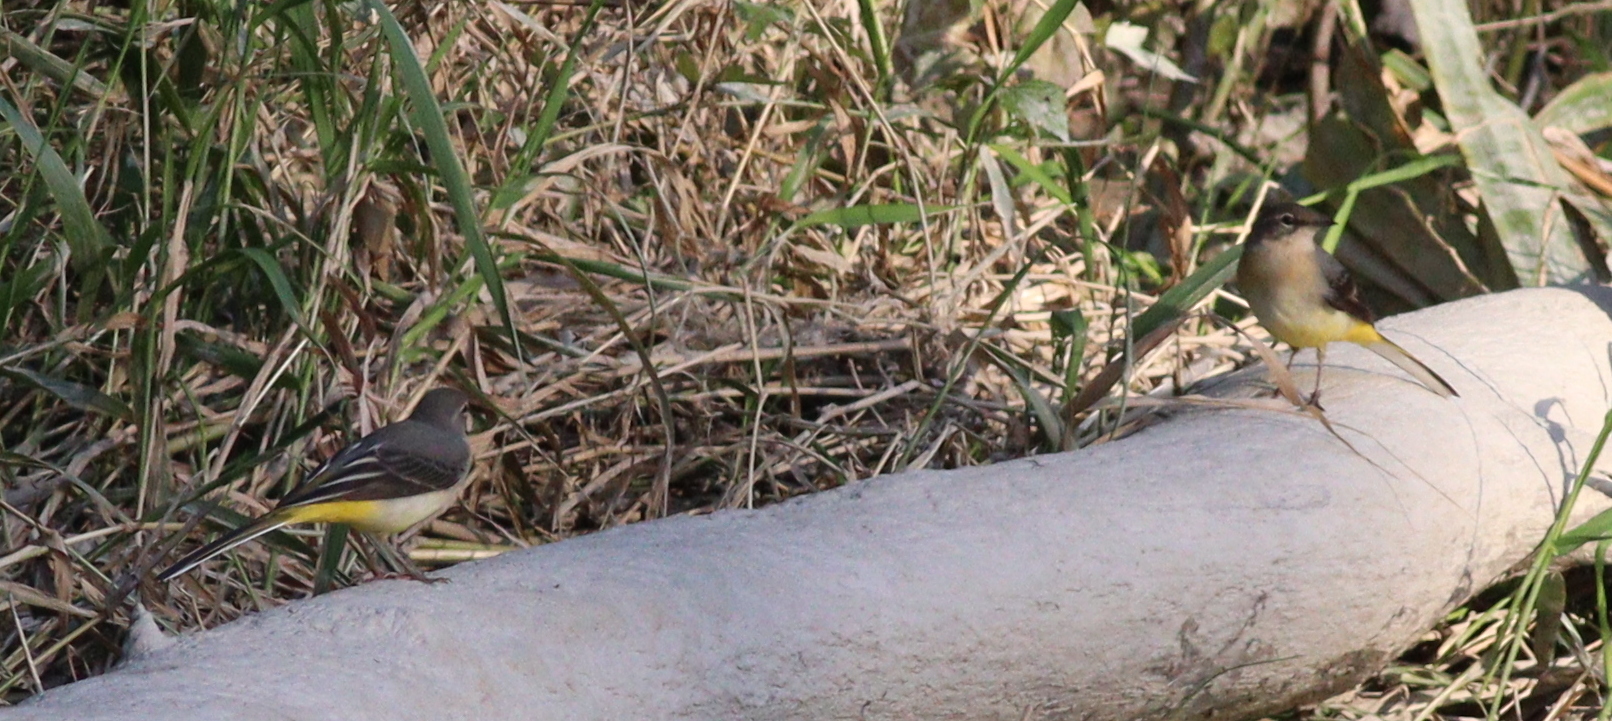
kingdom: Animalia
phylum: Chordata
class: Aves
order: Passeriformes
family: Motacillidae
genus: Motacilla
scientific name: Motacilla cinerea
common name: Grey wagtail
